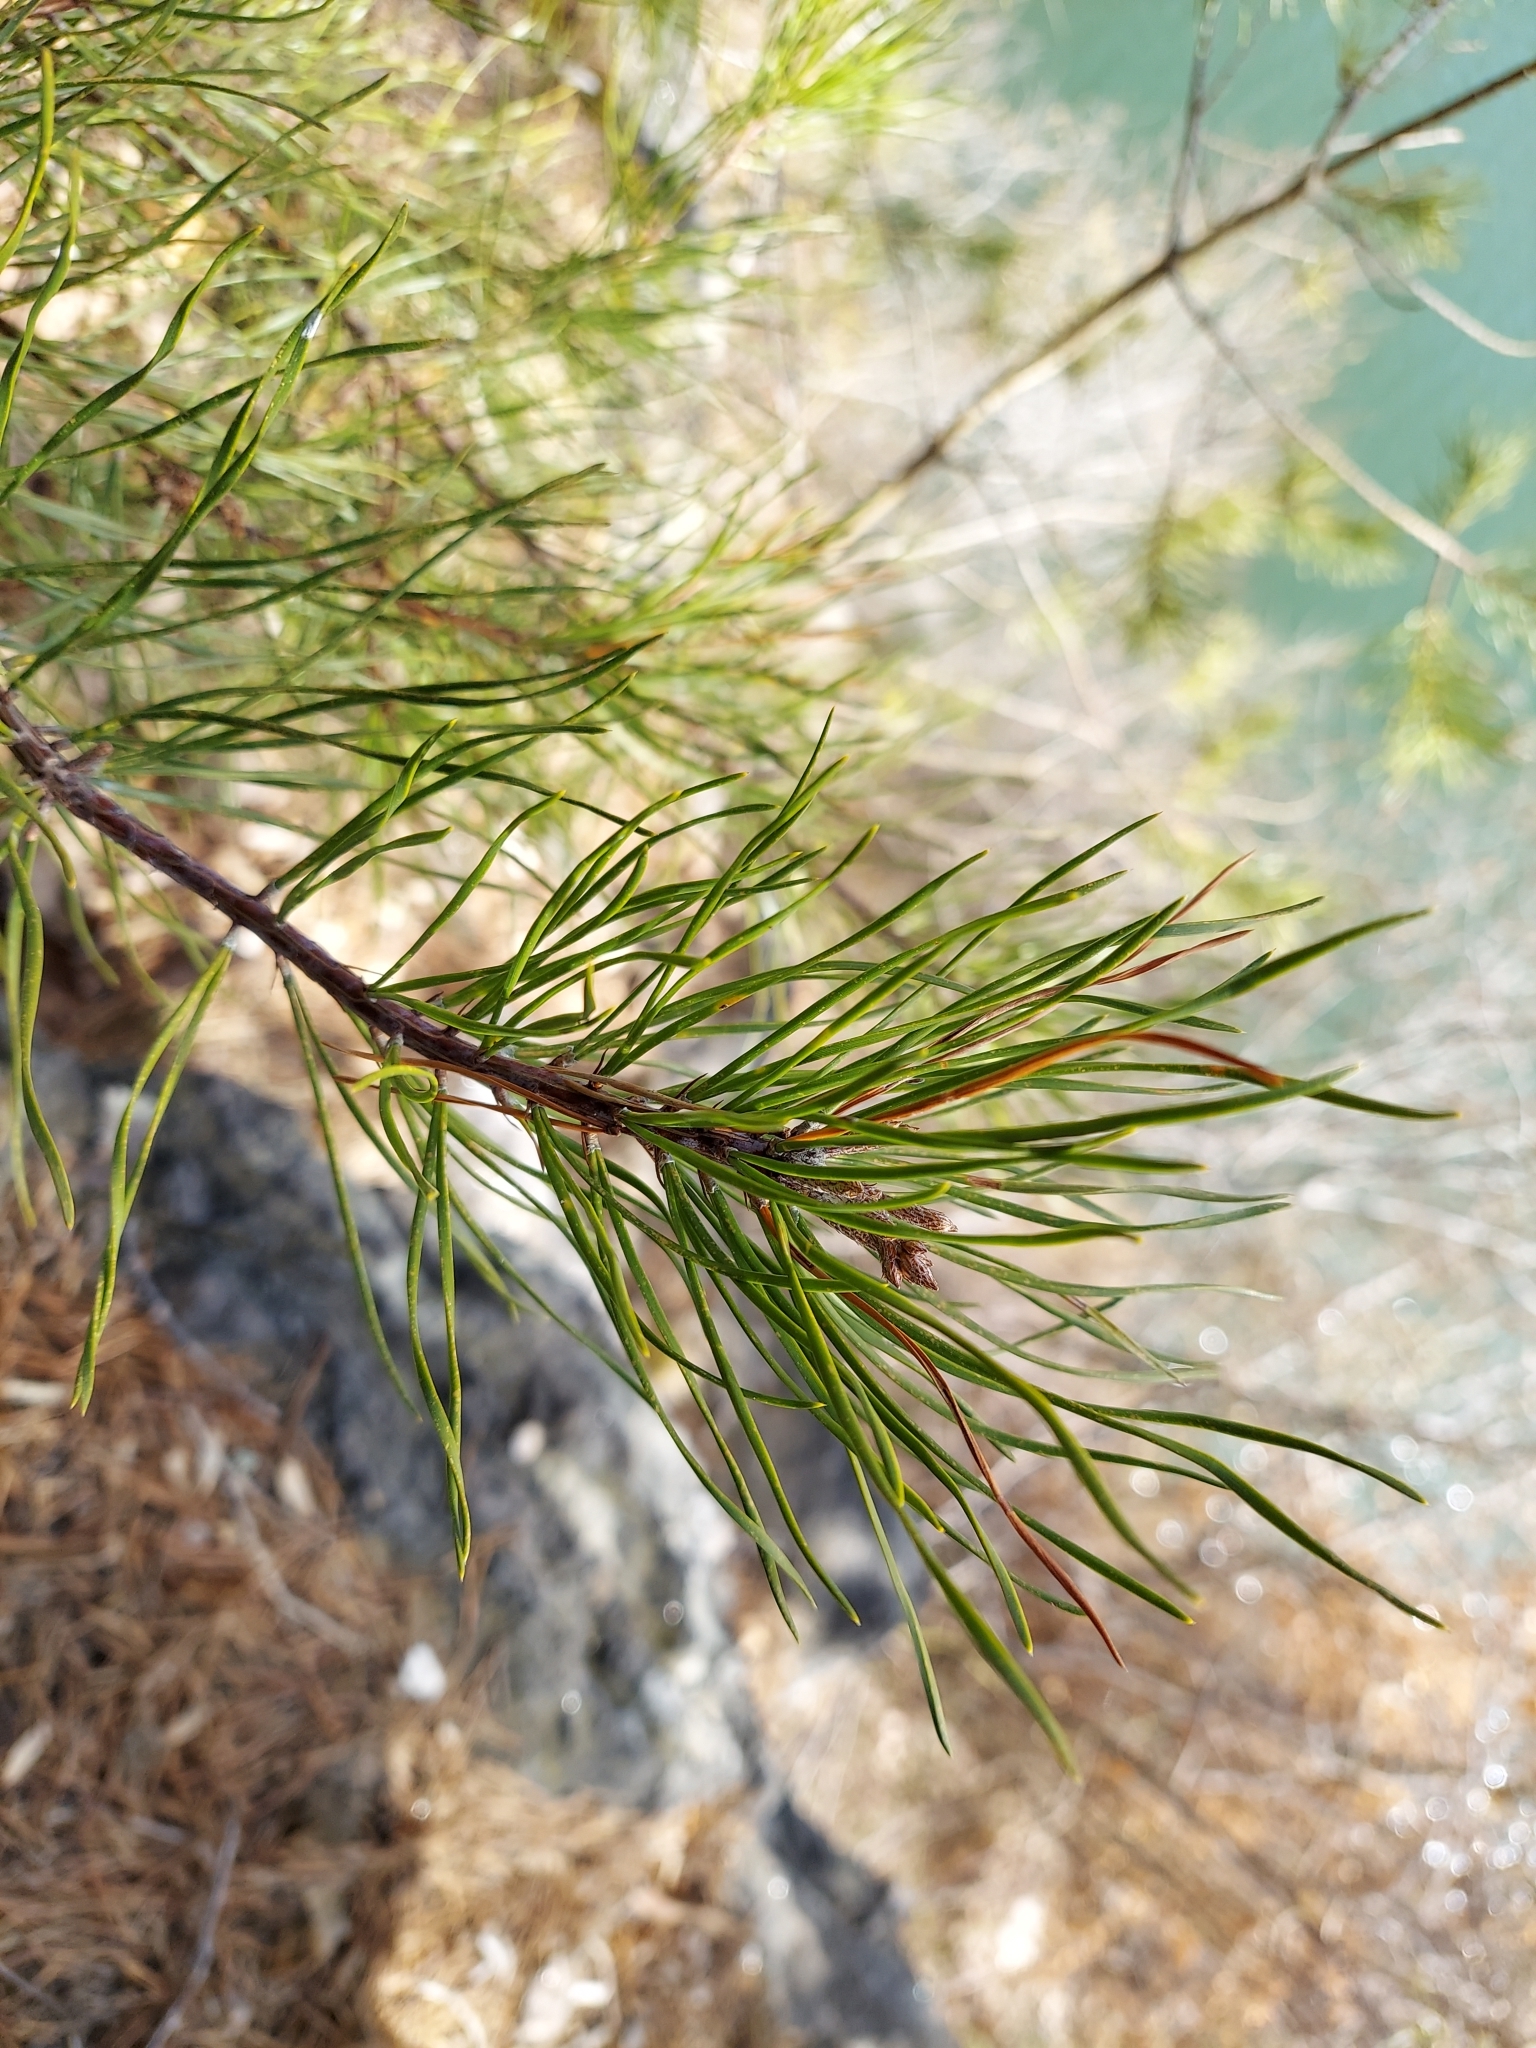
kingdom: Plantae
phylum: Tracheophyta
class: Pinopsida
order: Pinales
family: Pinaceae
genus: Pinus
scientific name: Pinus virginiana
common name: Scrub pine
